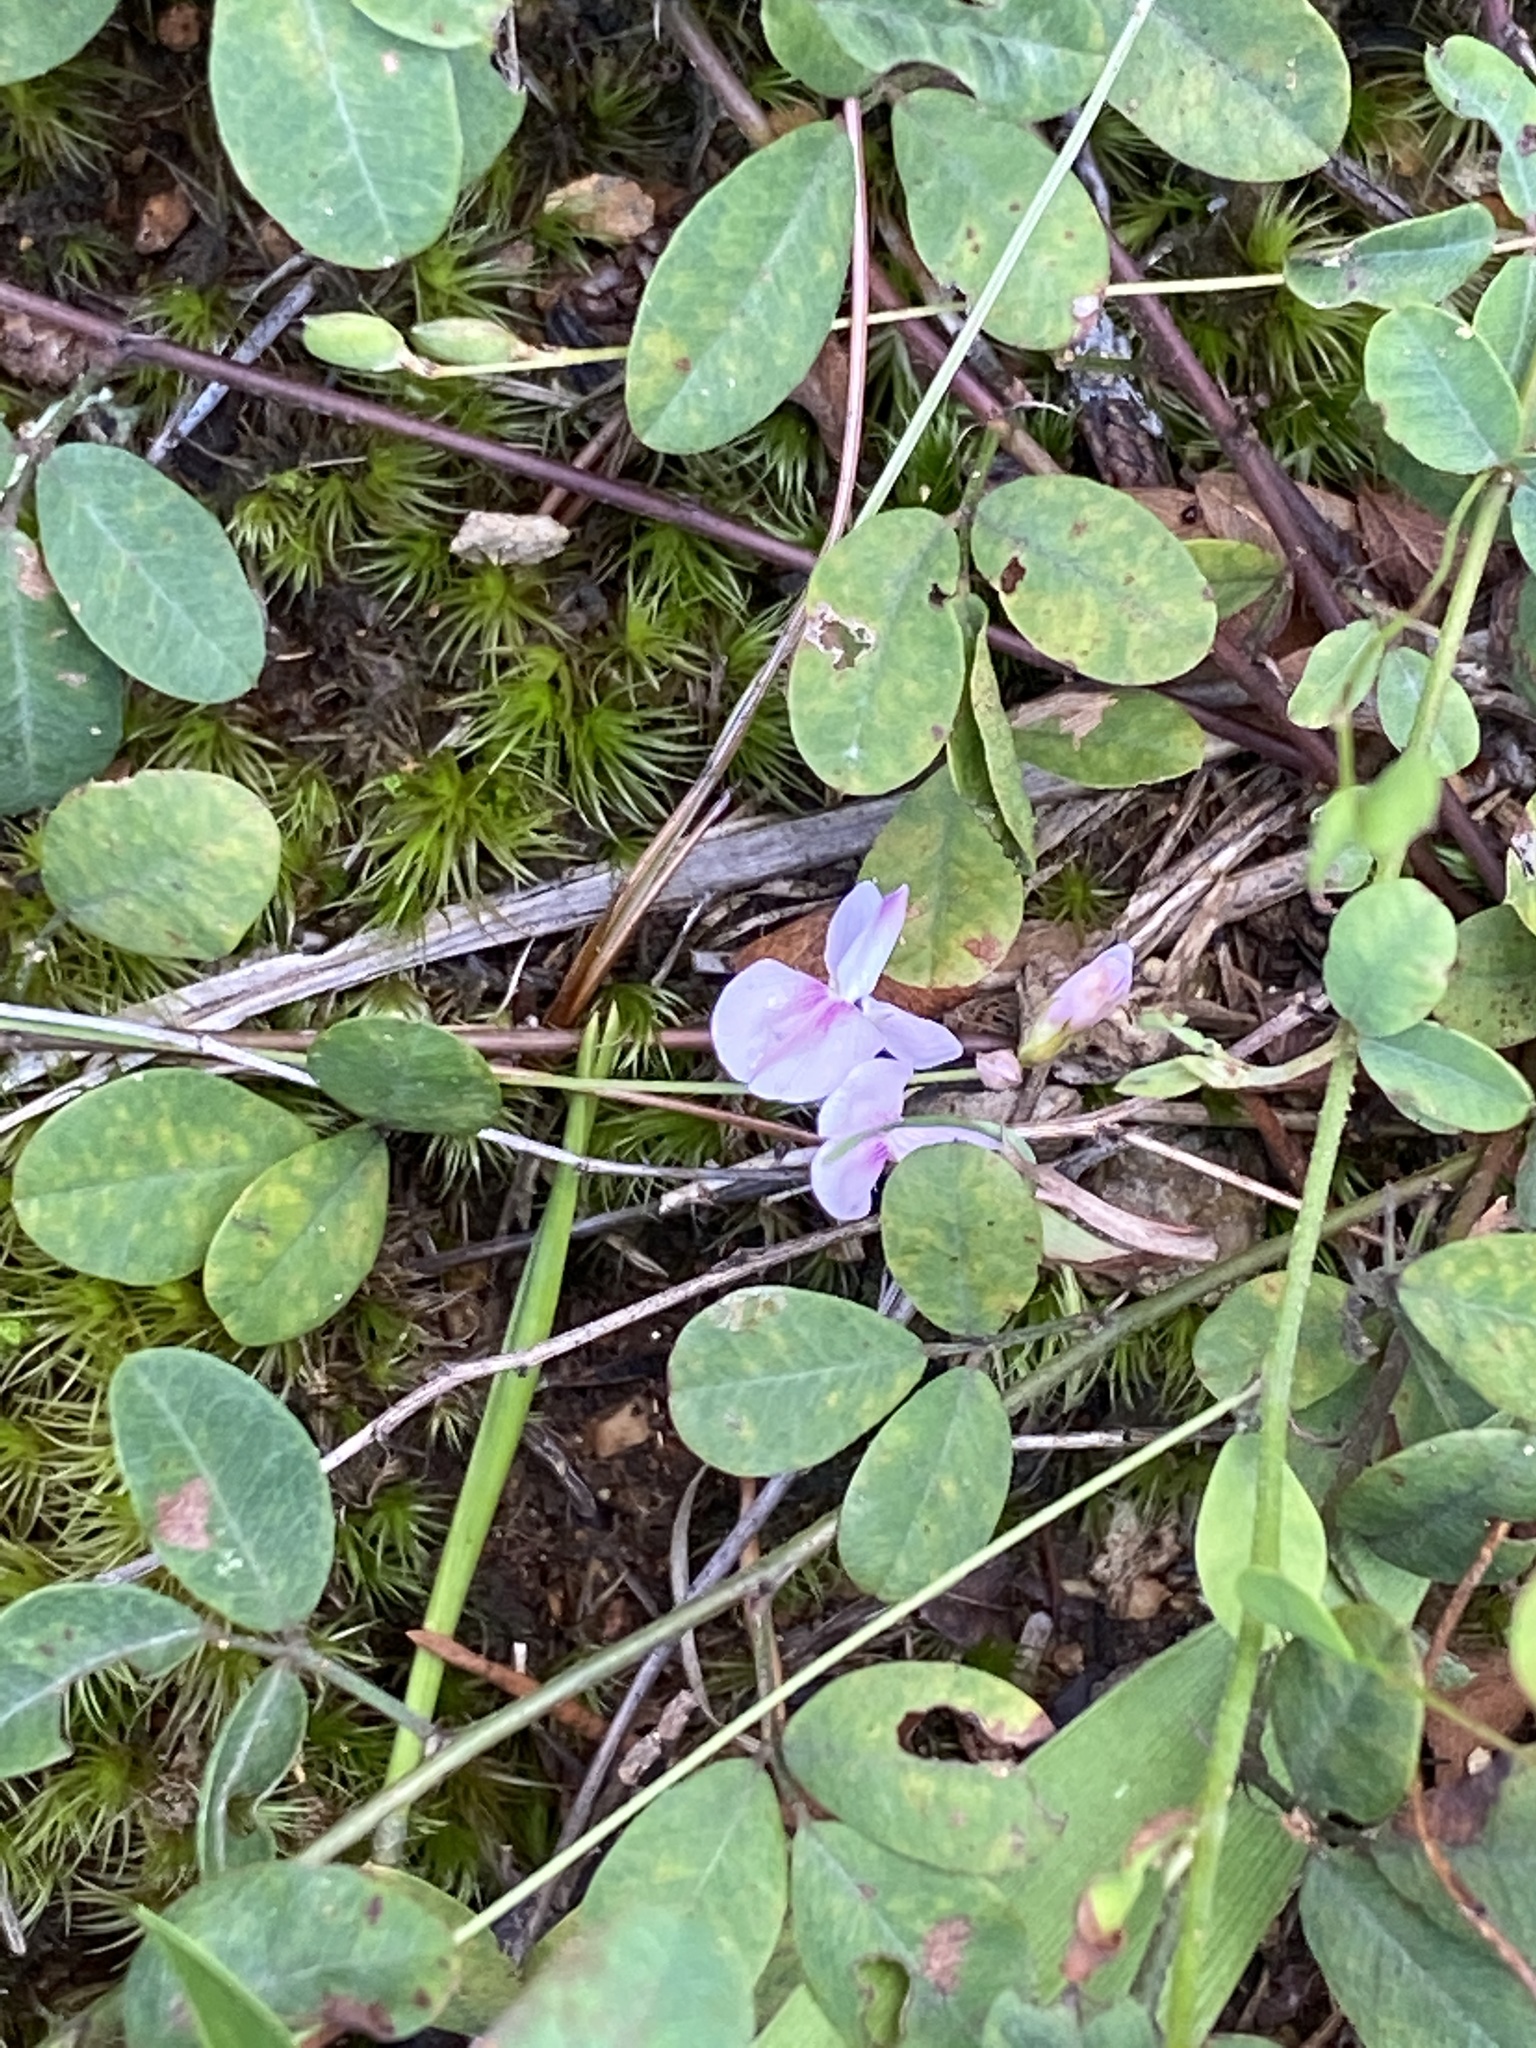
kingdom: Plantae
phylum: Tracheophyta
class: Magnoliopsida
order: Fabales
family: Fabaceae
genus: Lespedeza
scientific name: Lespedeza repens
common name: Creeping bush-clover
